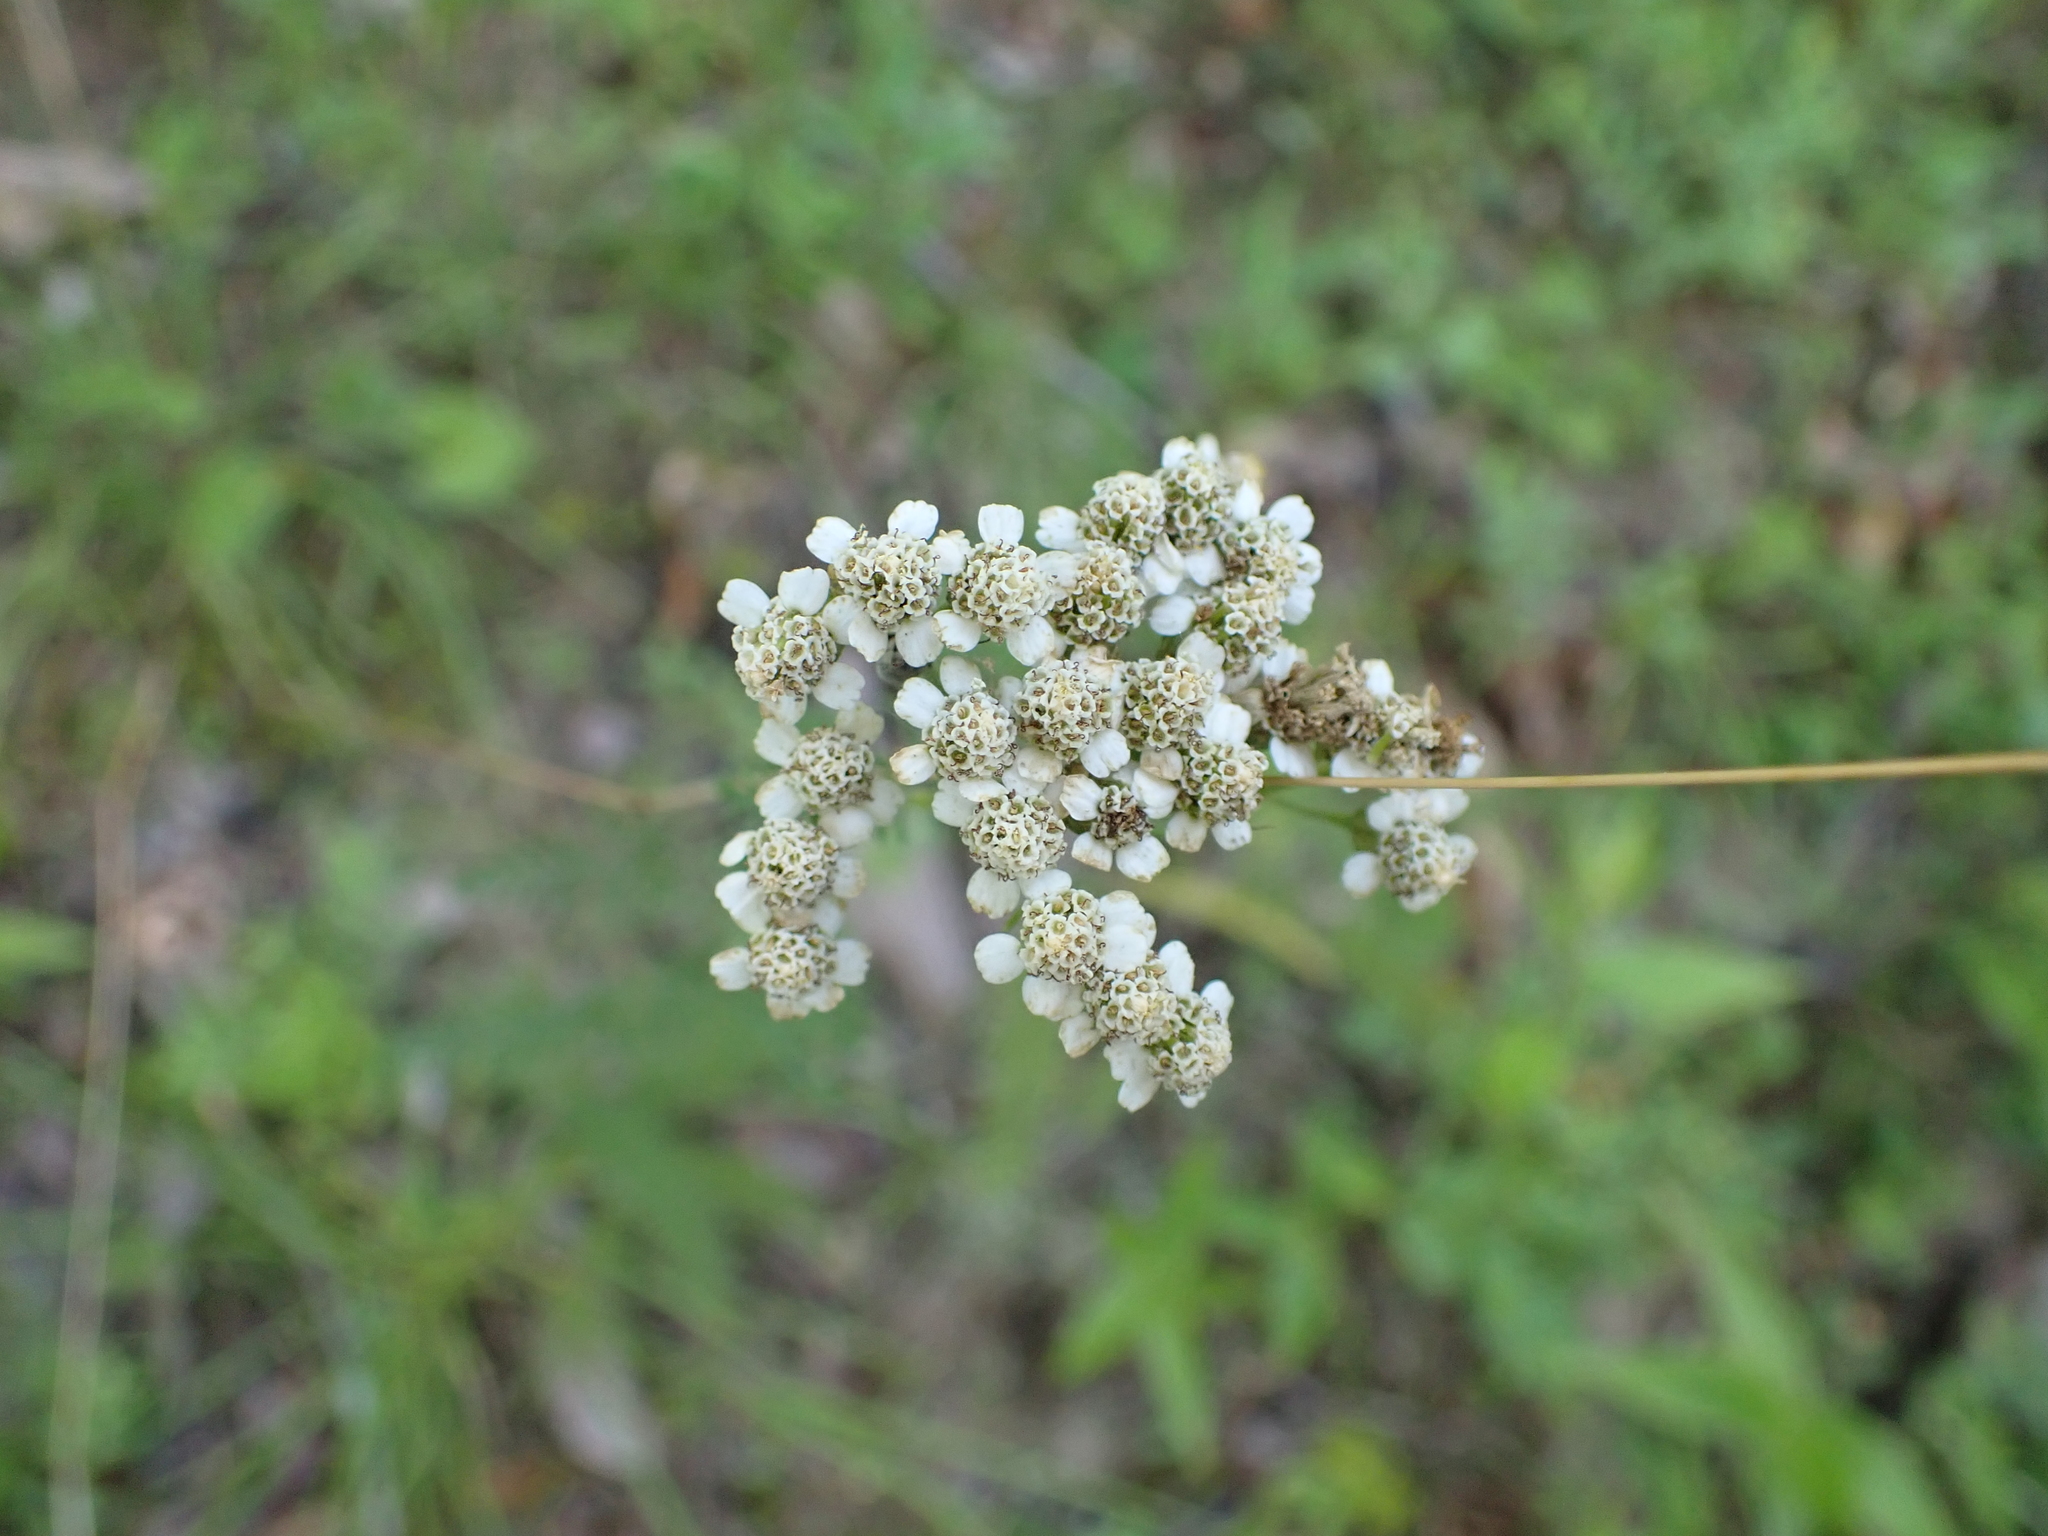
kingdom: Plantae
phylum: Tracheophyta
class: Magnoliopsida
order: Asterales
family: Asteraceae
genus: Achillea
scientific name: Achillea millefolium
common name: Yarrow
